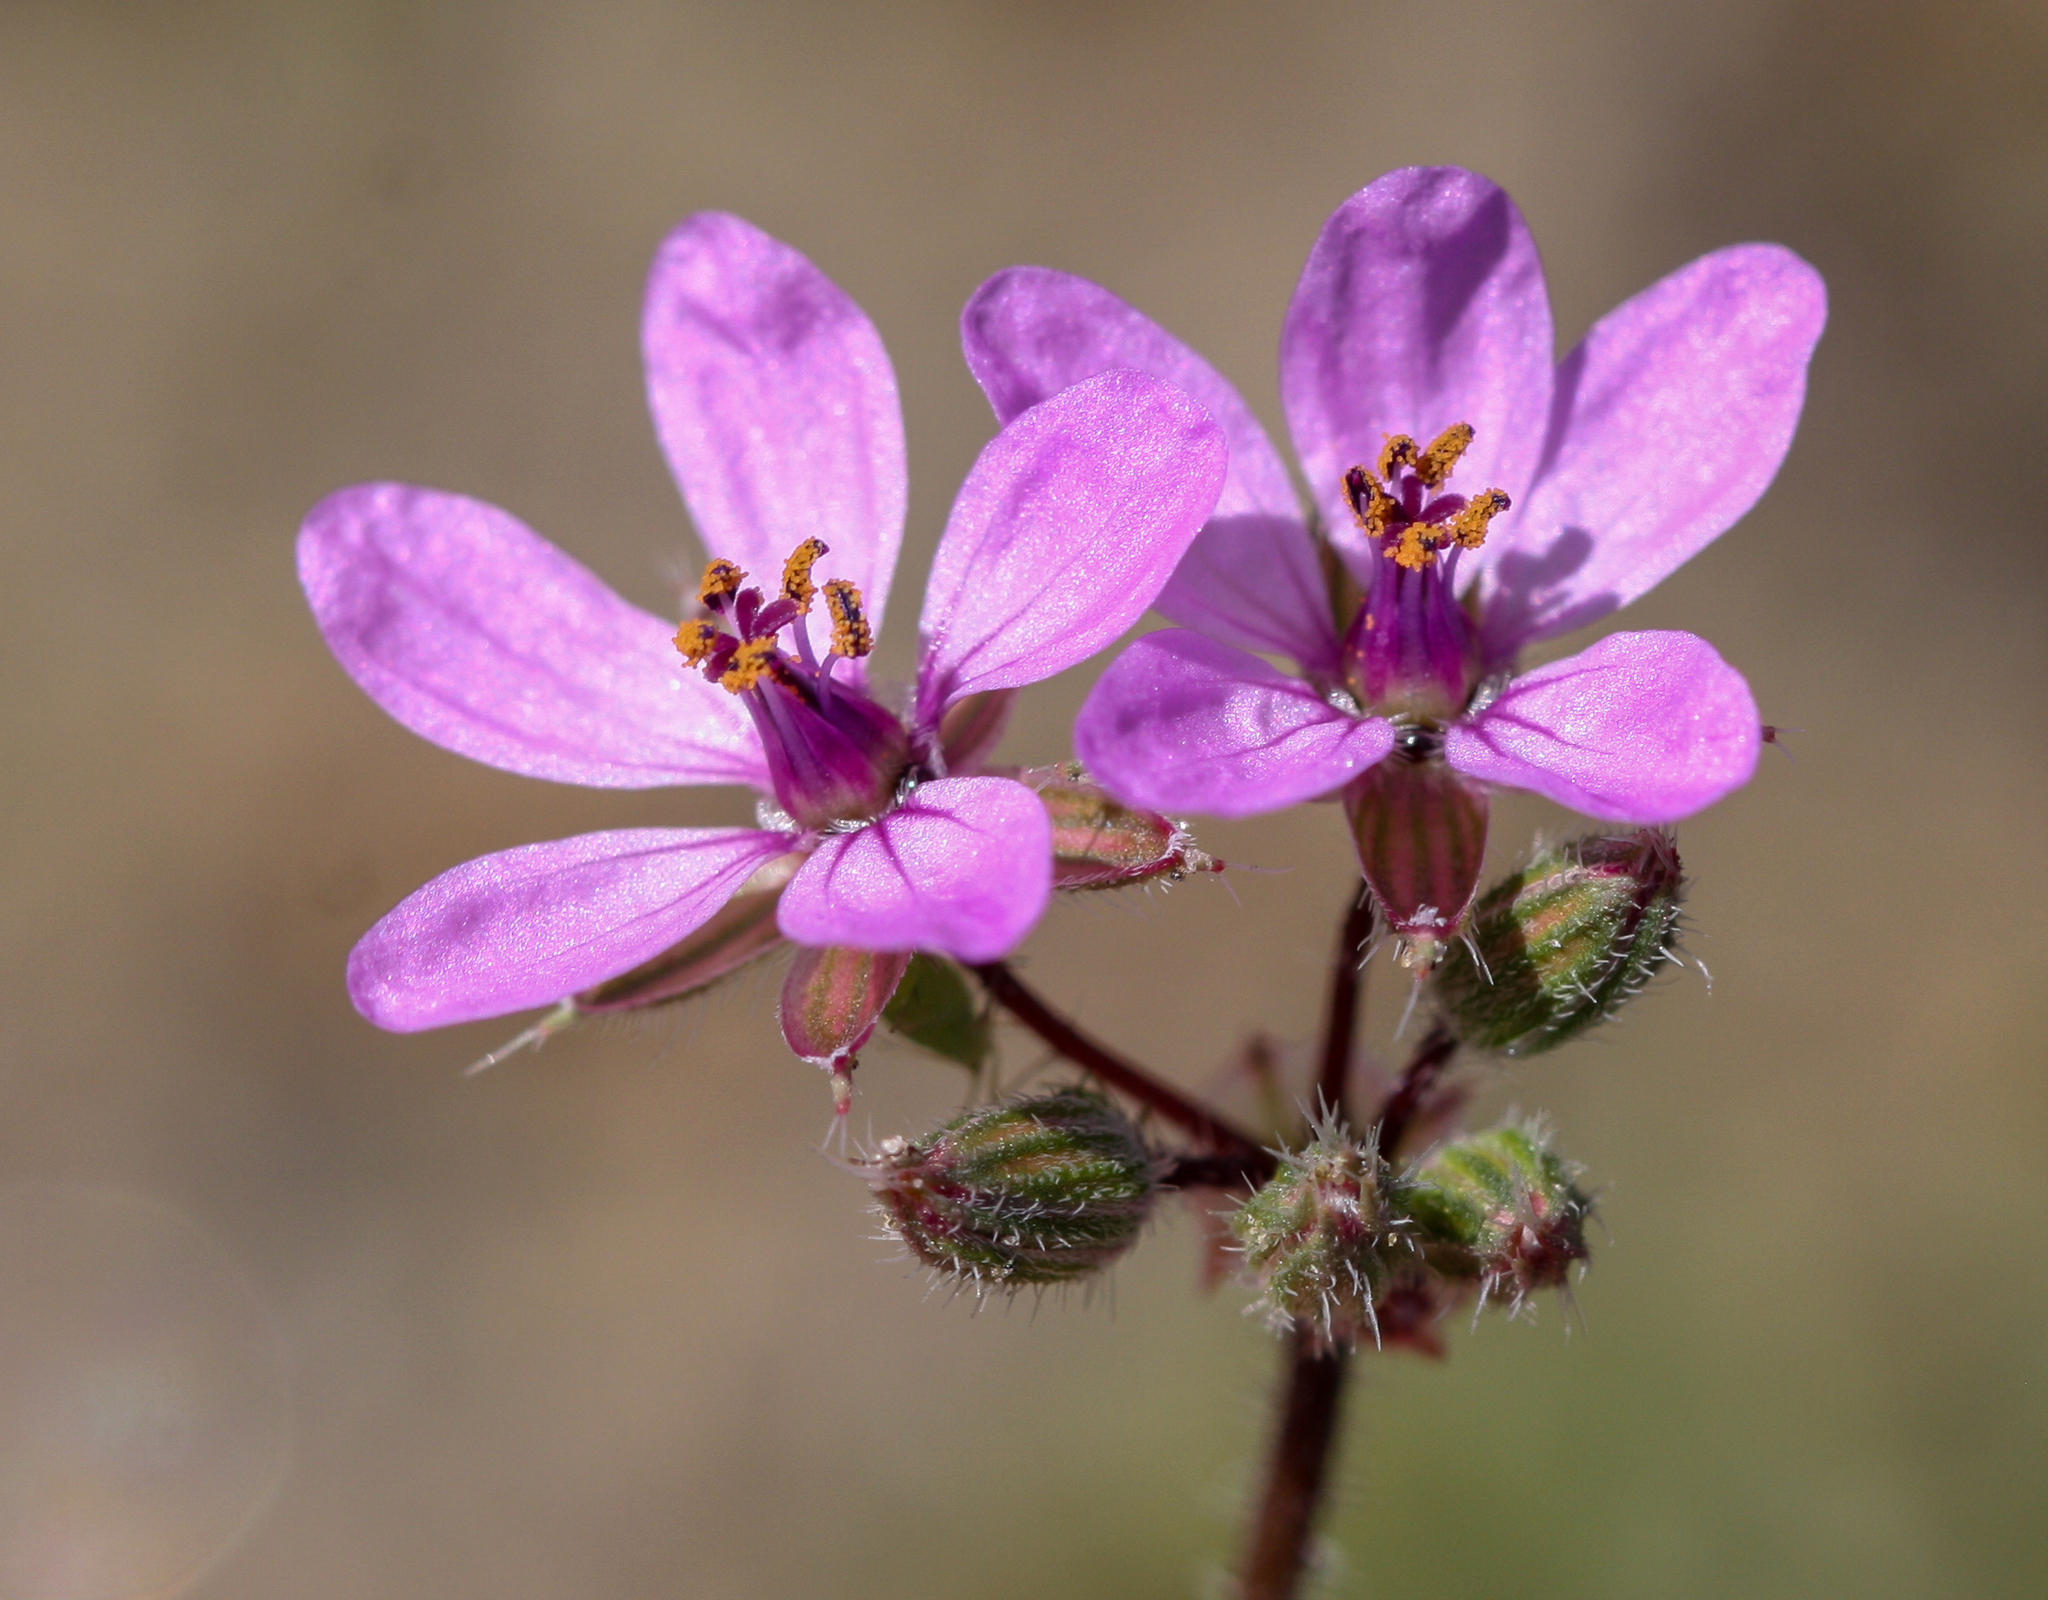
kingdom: Plantae
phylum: Tracheophyta
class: Magnoliopsida
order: Geraniales
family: Geraniaceae
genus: Erodium
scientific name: Erodium cicutarium
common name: Common stork's-bill
